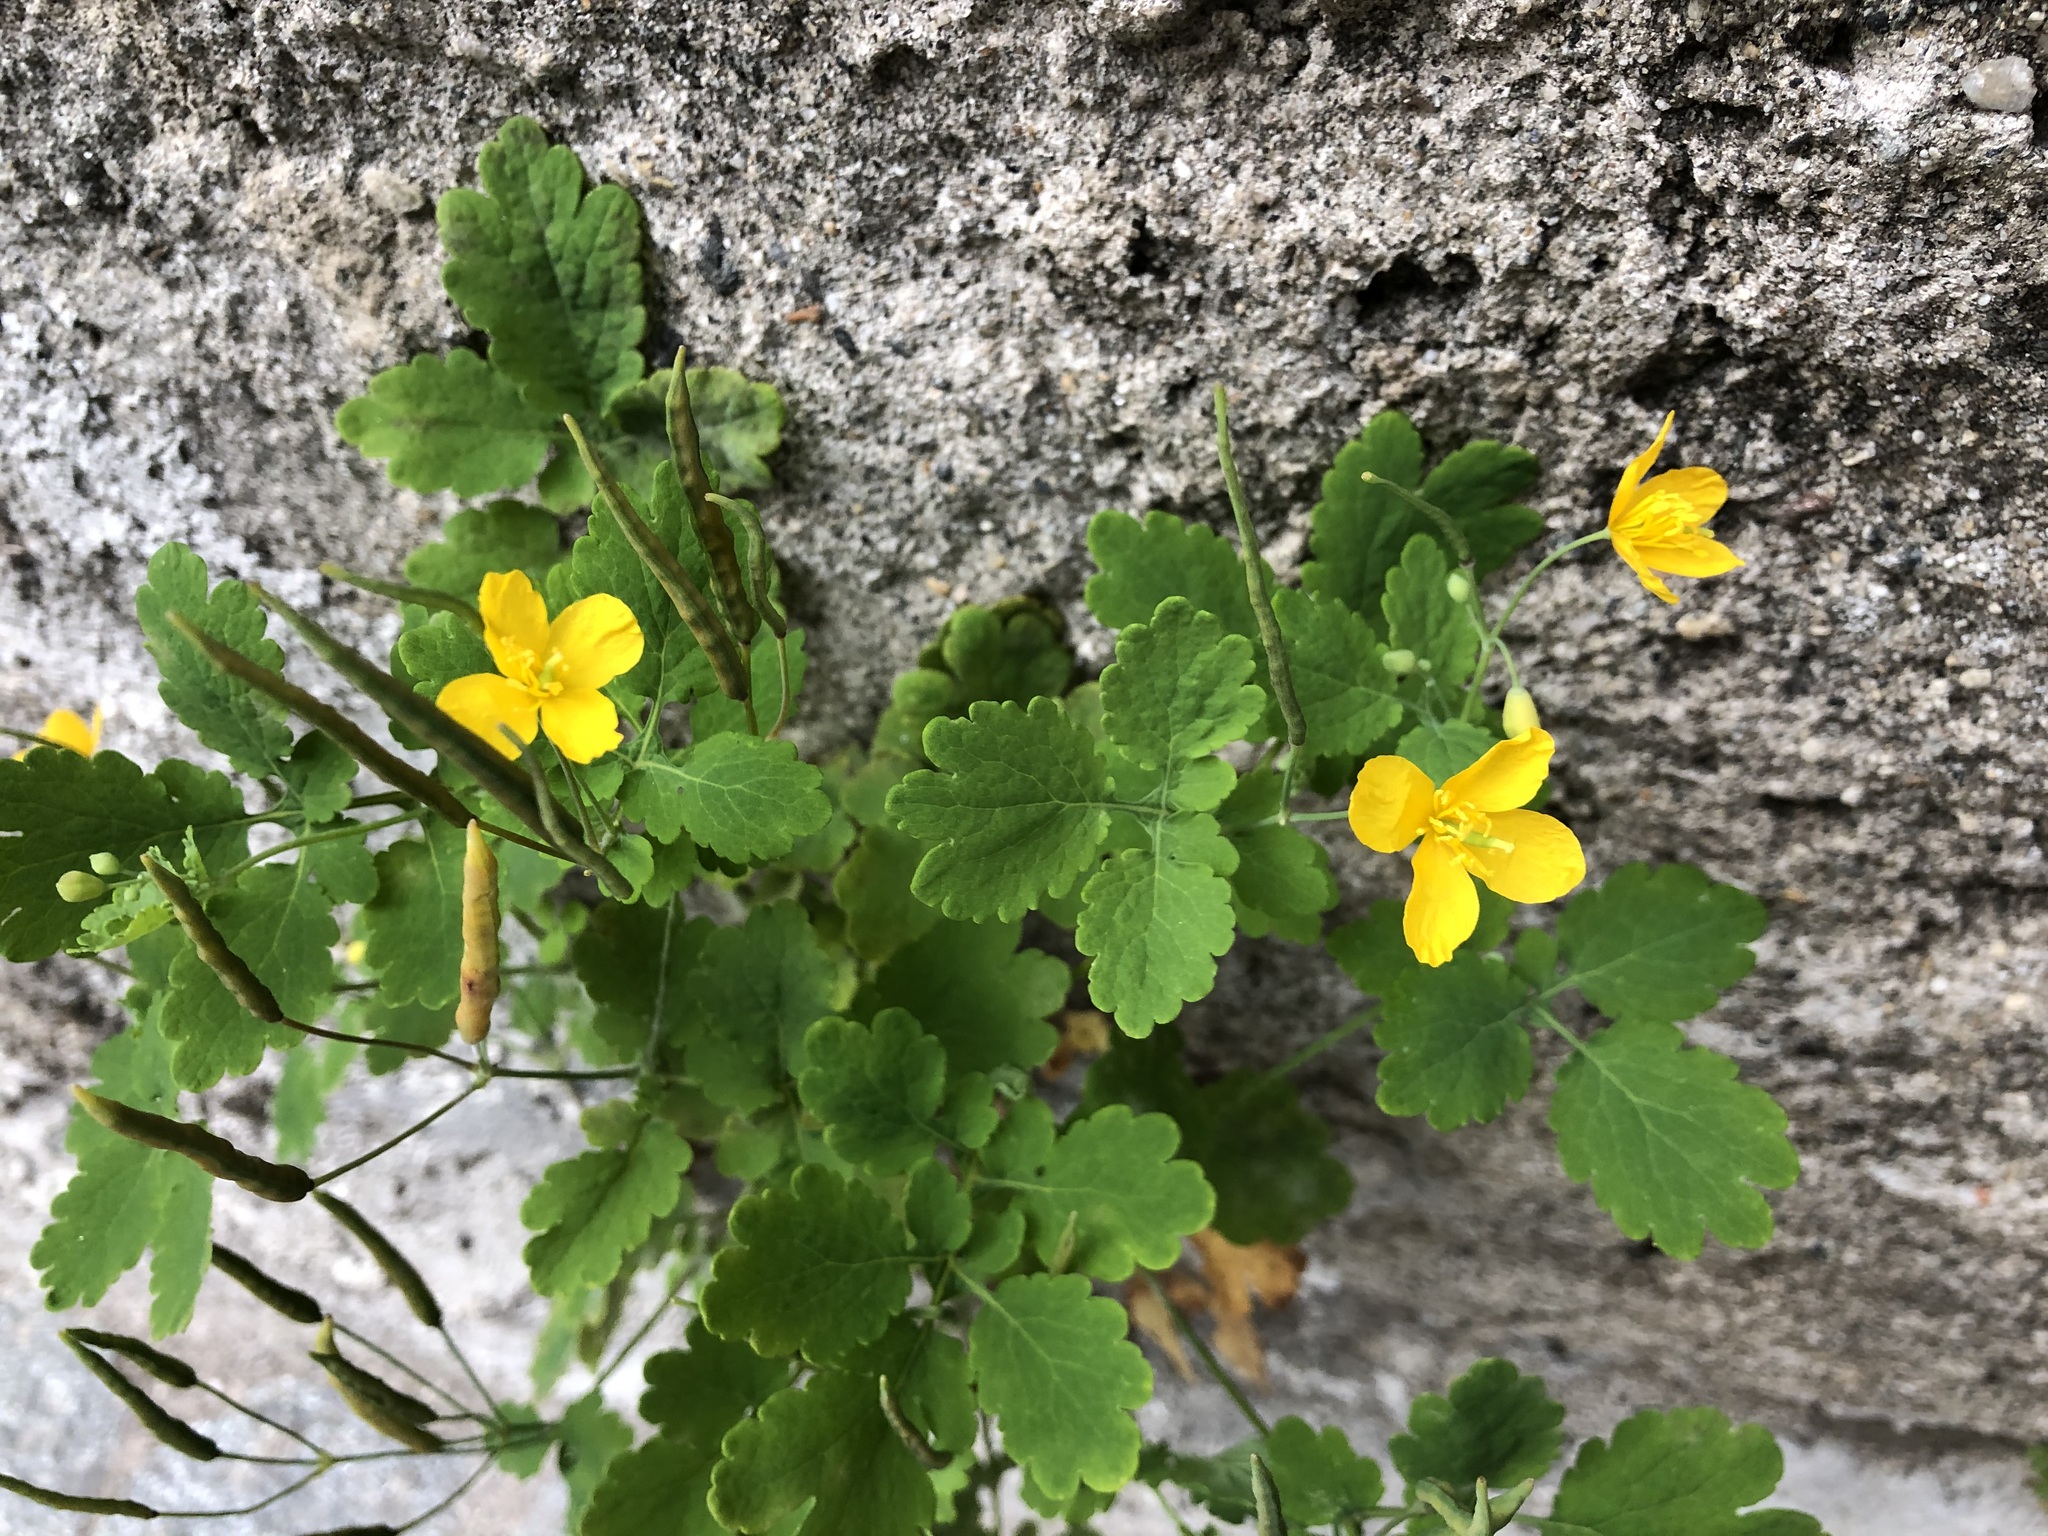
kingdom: Plantae
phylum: Tracheophyta
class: Magnoliopsida
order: Ranunculales
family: Papaveraceae
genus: Chelidonium
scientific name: Chelidonium majus
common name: Greater celandine
